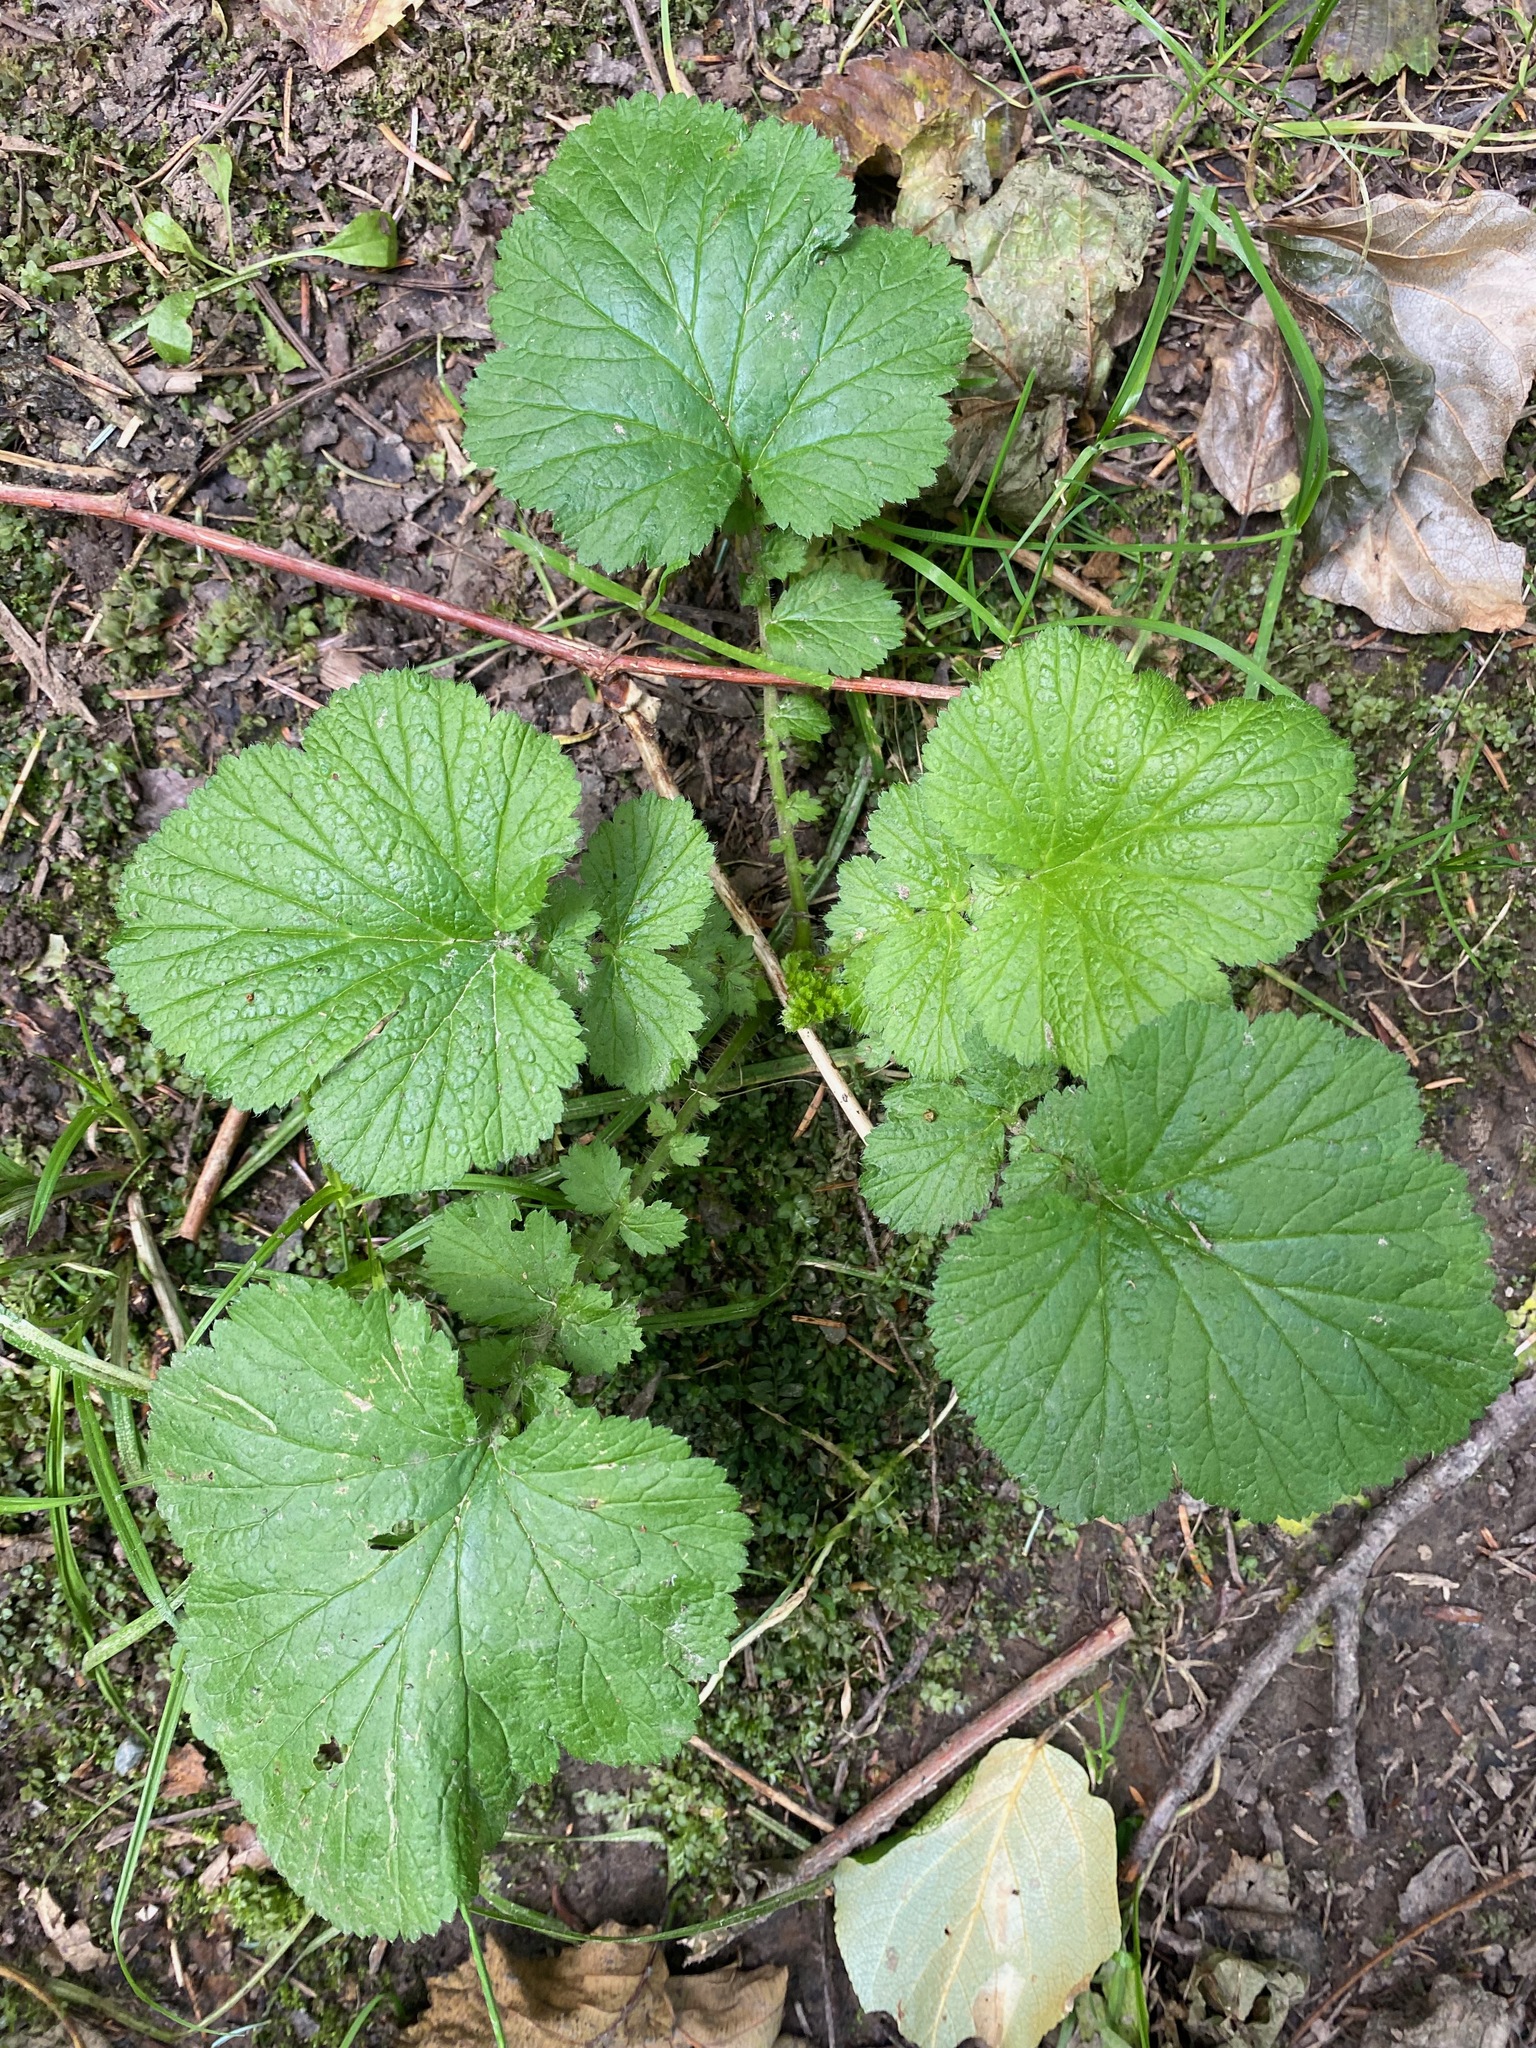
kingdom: Plantae
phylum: Tracheophyta
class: Magnoliopsida
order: Rosales
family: Rosaceae
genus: Geum
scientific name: Geum macrophyllum
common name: Large-leaved avens
